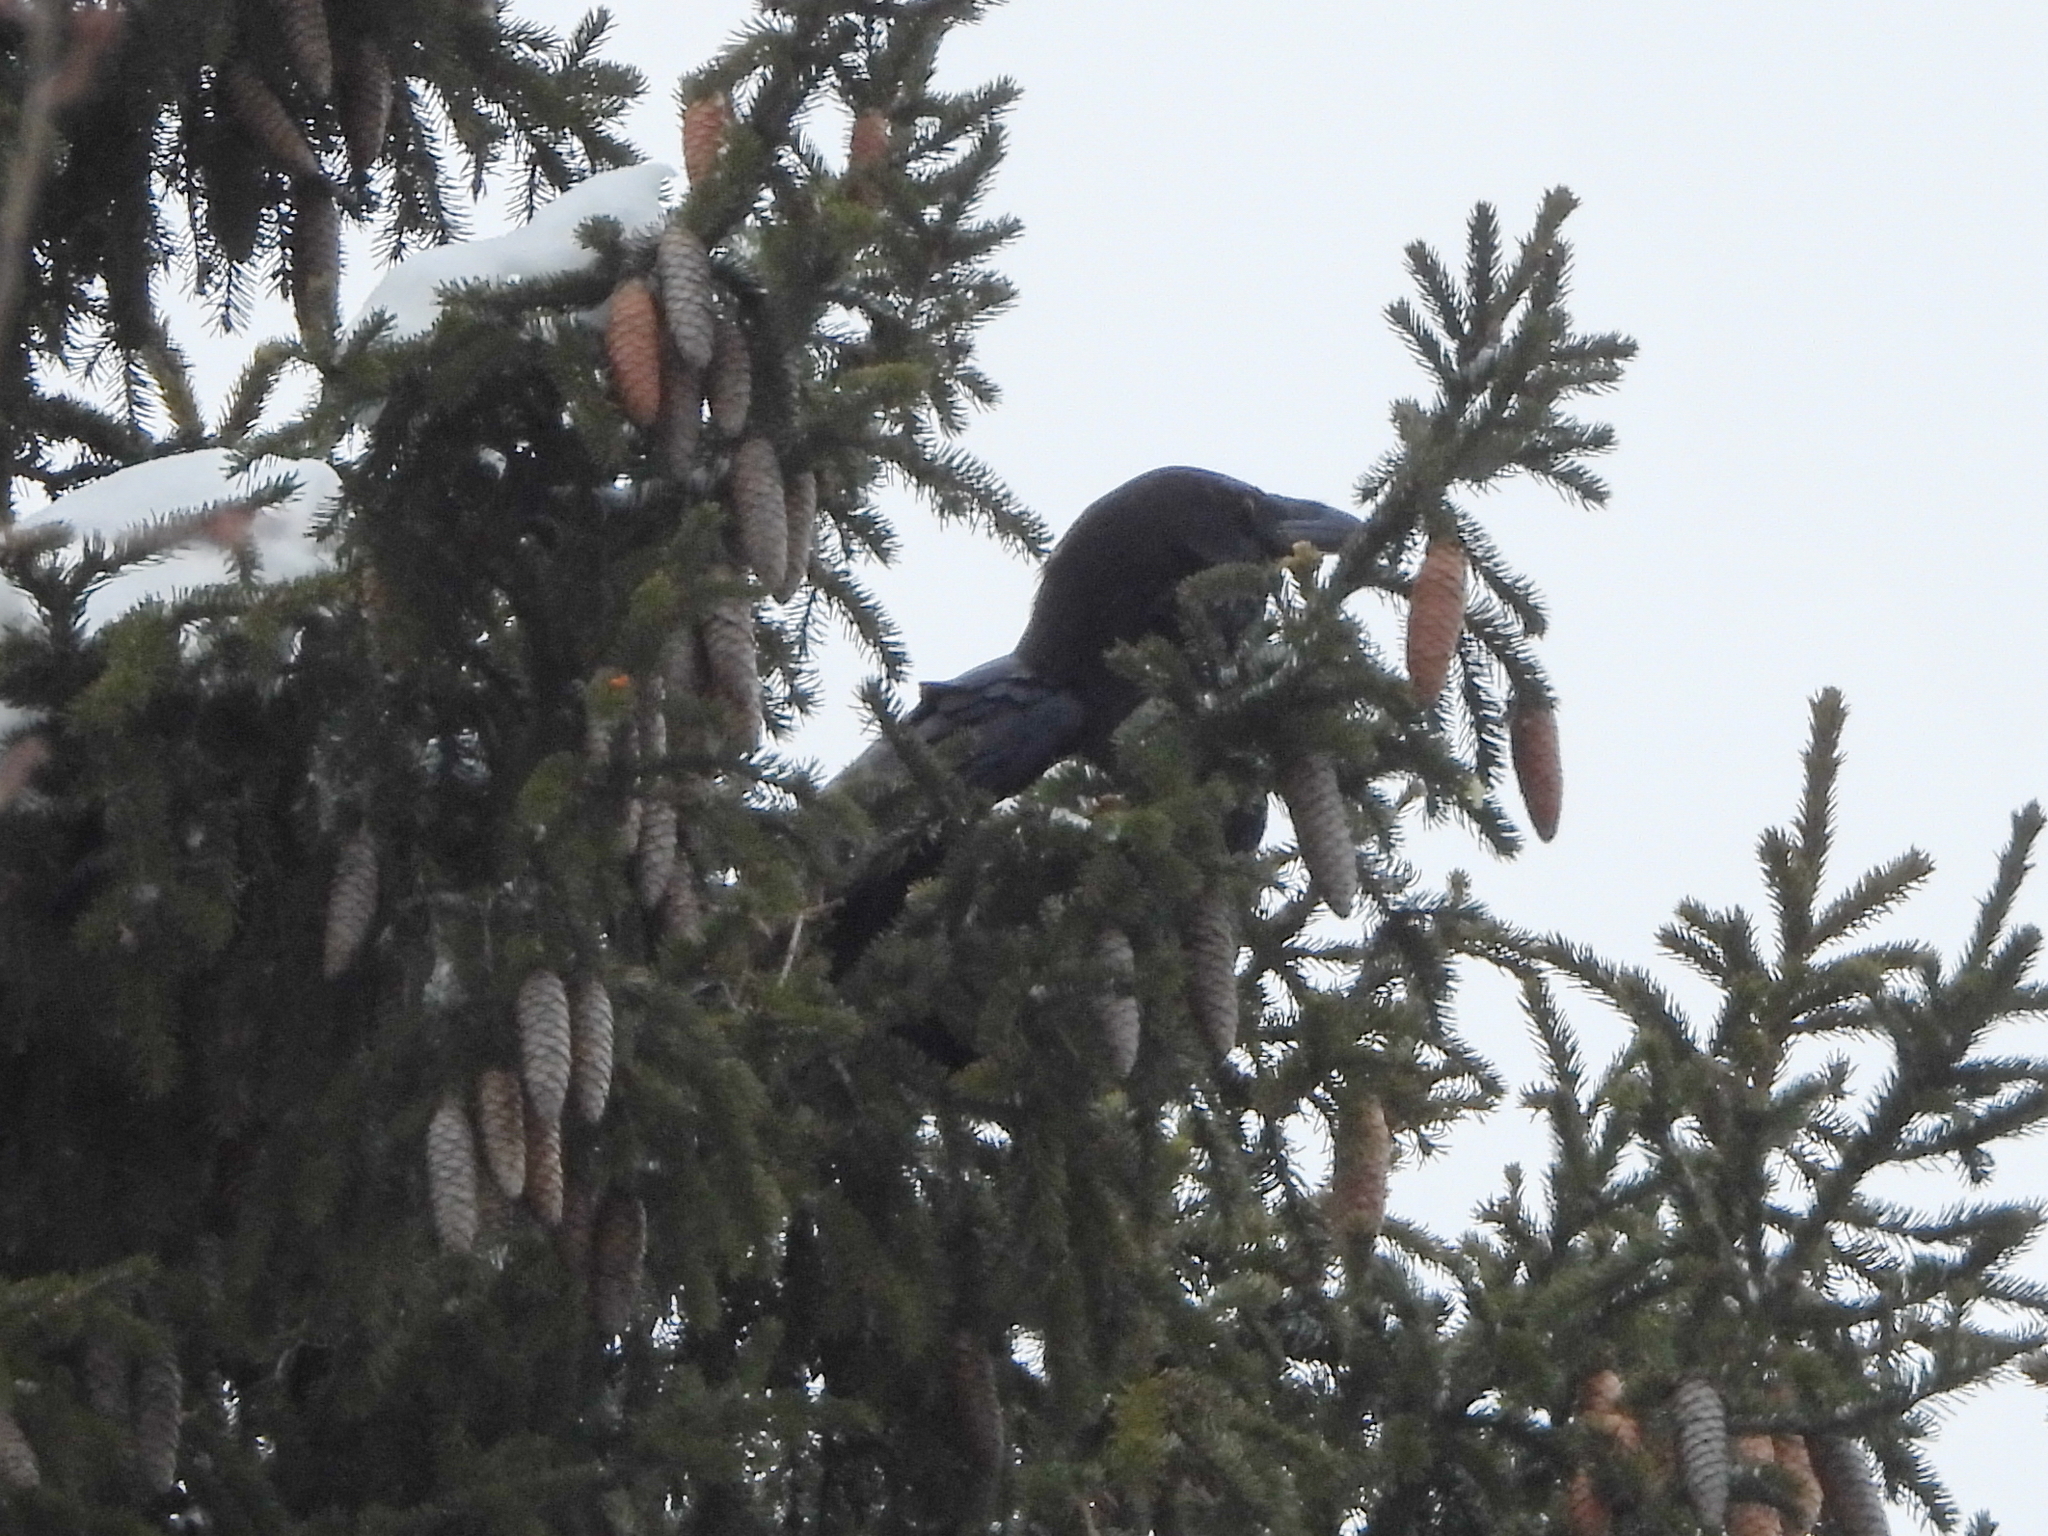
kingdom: Animalia
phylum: Chordata
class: Aves
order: Passeriformes
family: Corvidae
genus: Corvus
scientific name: Corvus corax
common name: Common raven
